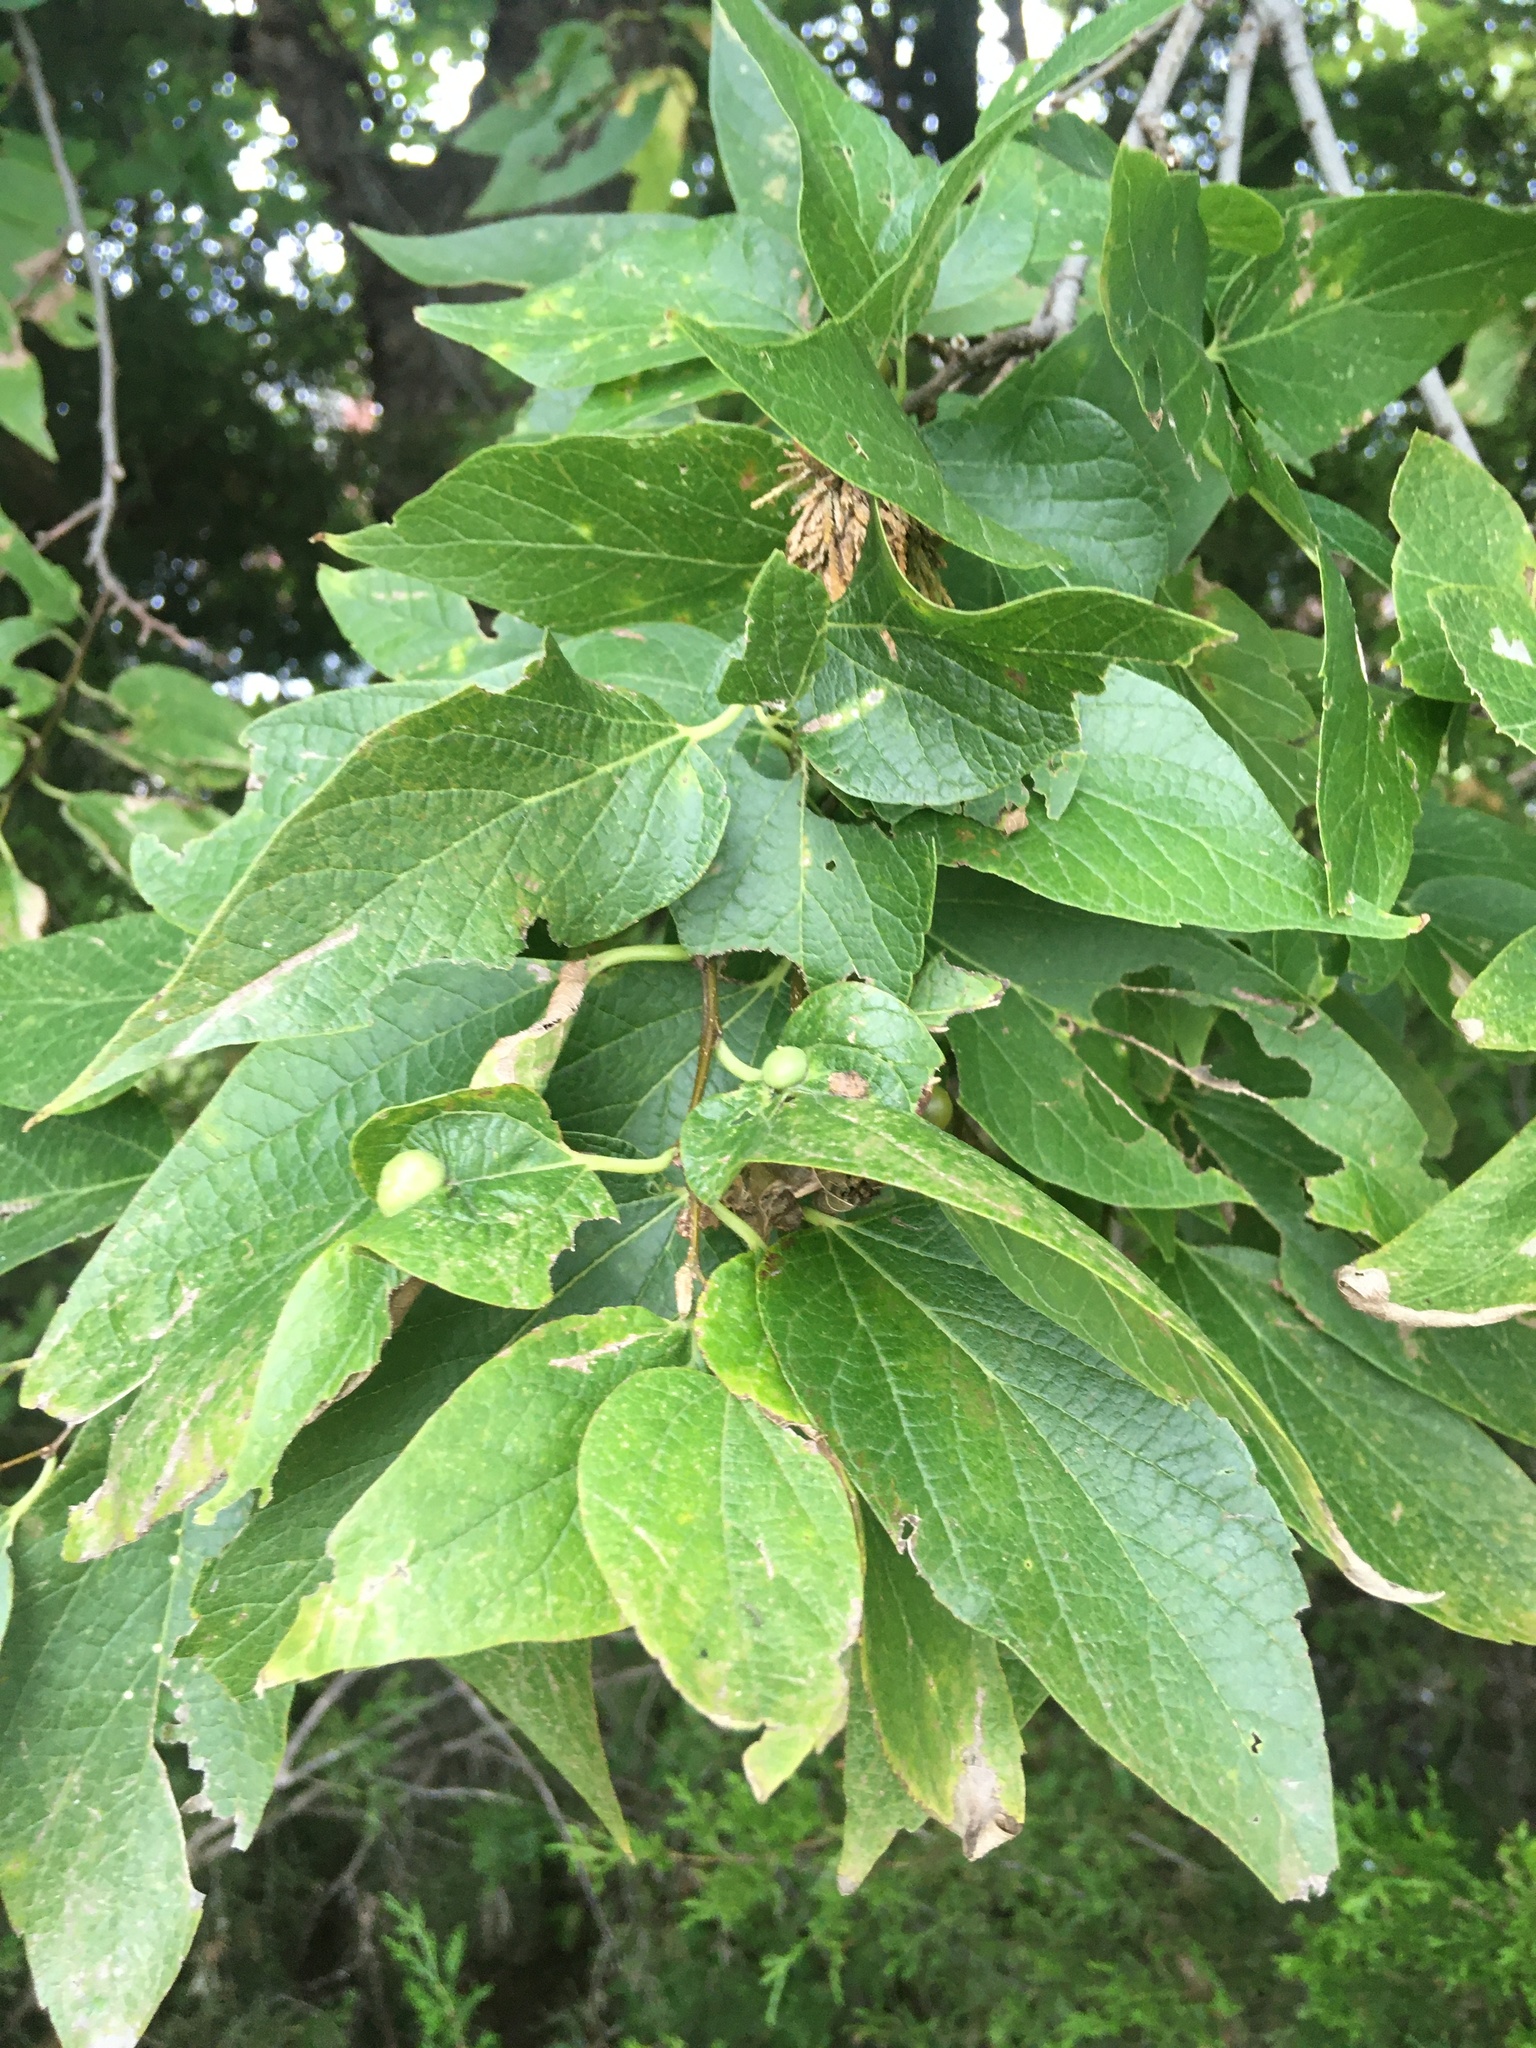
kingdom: Plantae
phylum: Tracheophyta
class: Magnoliopsida
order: Rosales
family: Cannabaceae
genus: Celtis
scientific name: Celtis laevigata
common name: Sugarberry
